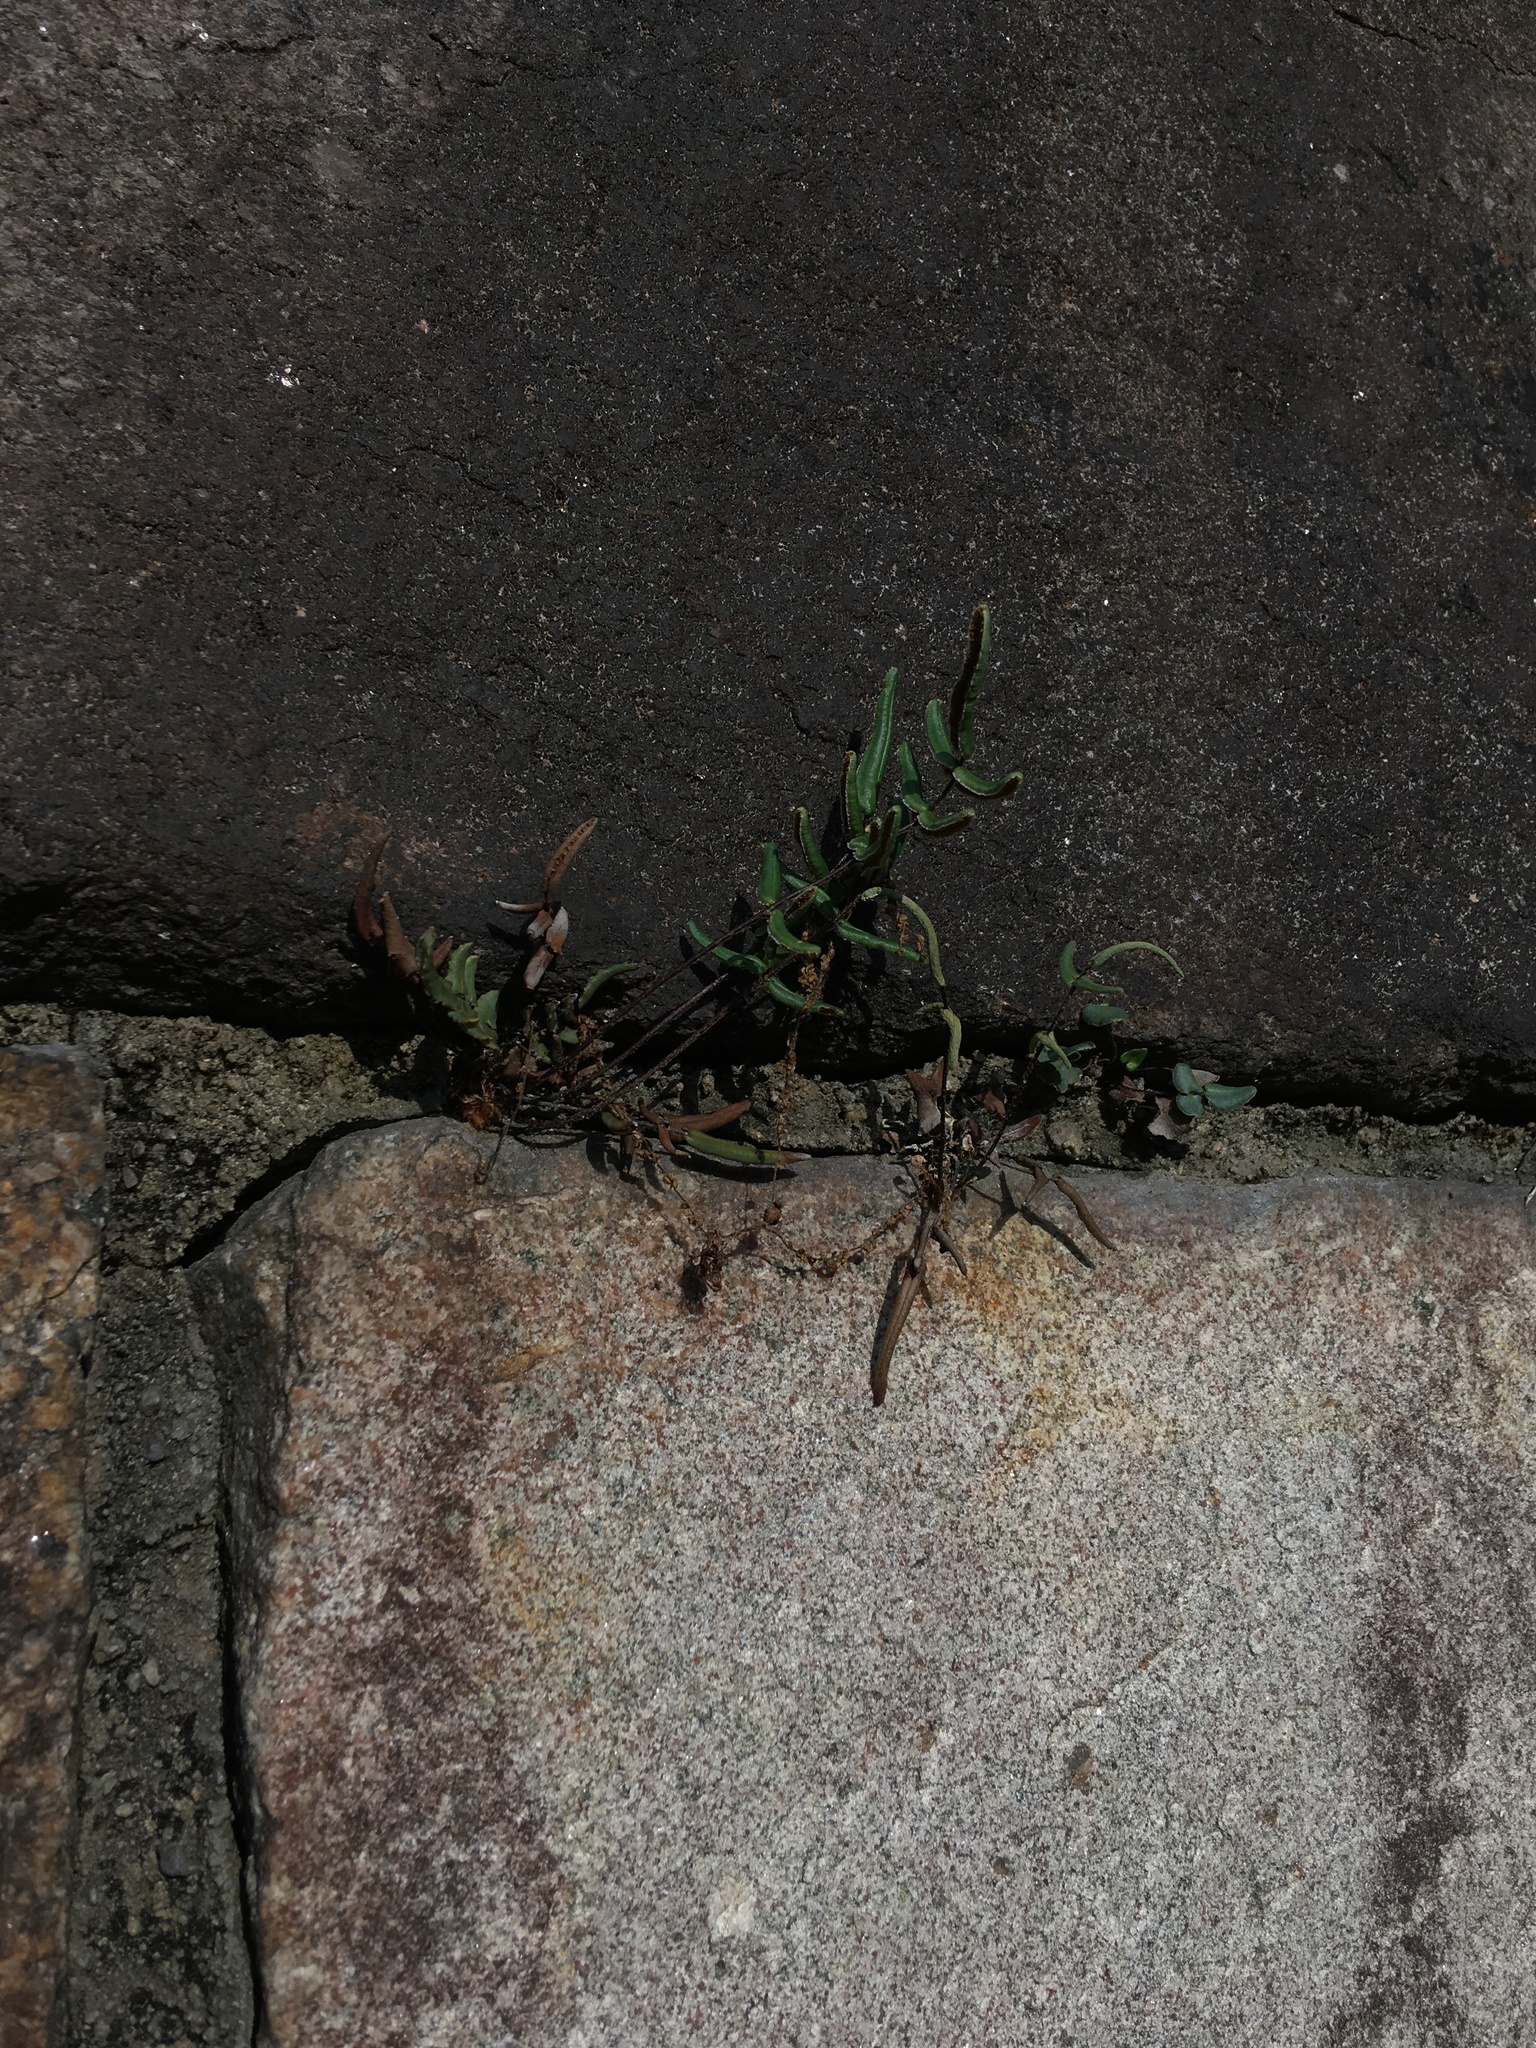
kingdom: Plantae
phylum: Tracheophyta
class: Polypodiopsida
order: Polypodiales
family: Pteridaceae
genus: Pellaea
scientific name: Pellaea atropurpurea
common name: Hairy cliffbrake
